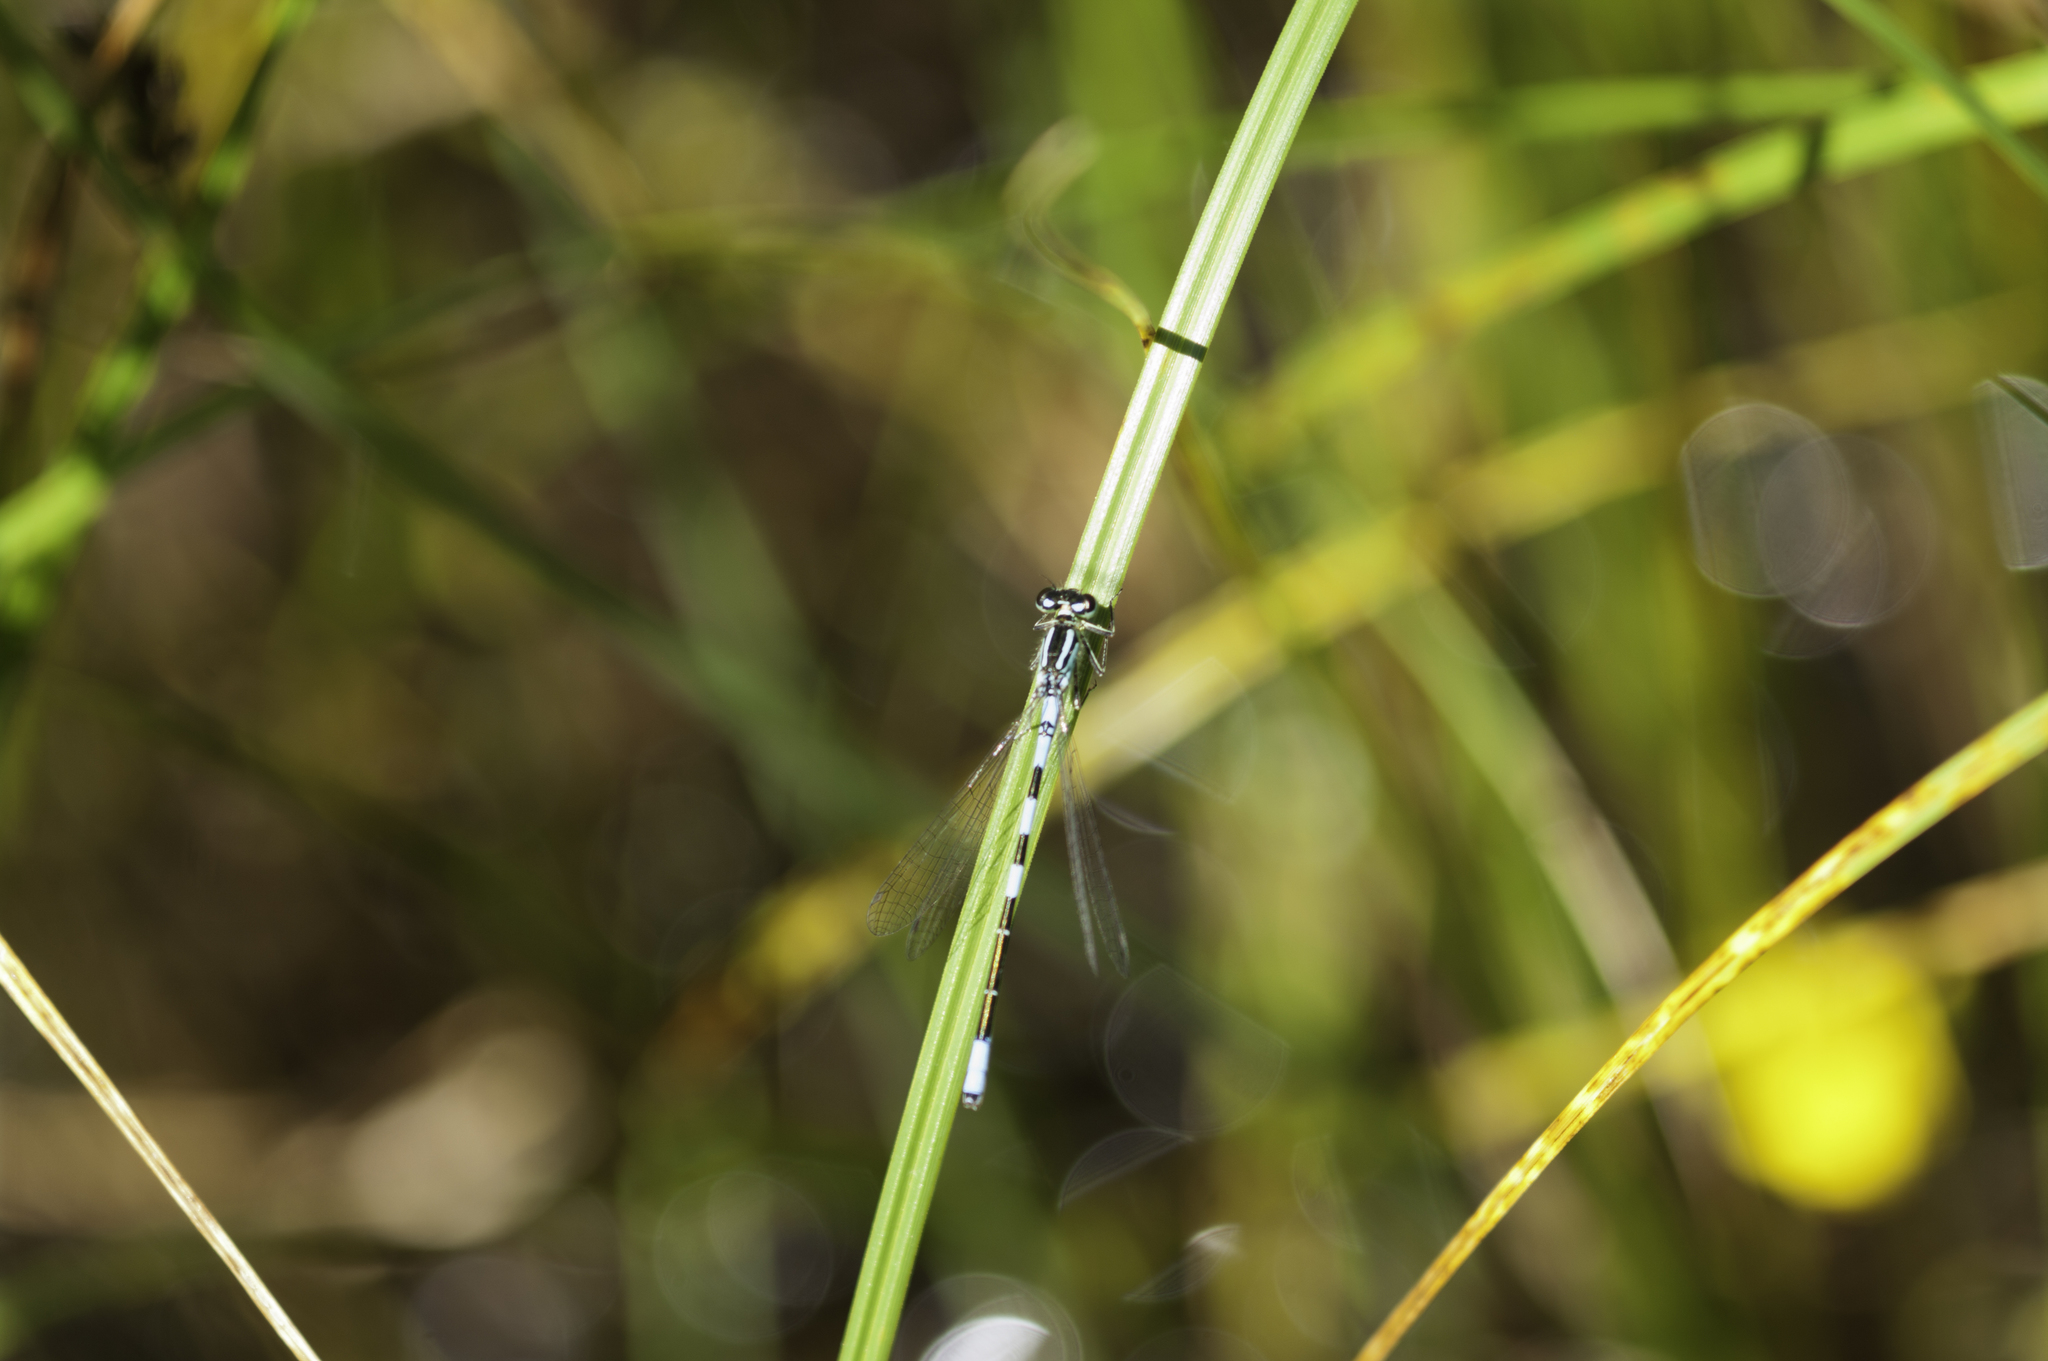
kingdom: Animalia
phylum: Arthropoda
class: Insecta
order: Odonata
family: Coenagrionidae
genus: Coenagrion
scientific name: Coenagrion resolutum
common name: Taiga bluet
